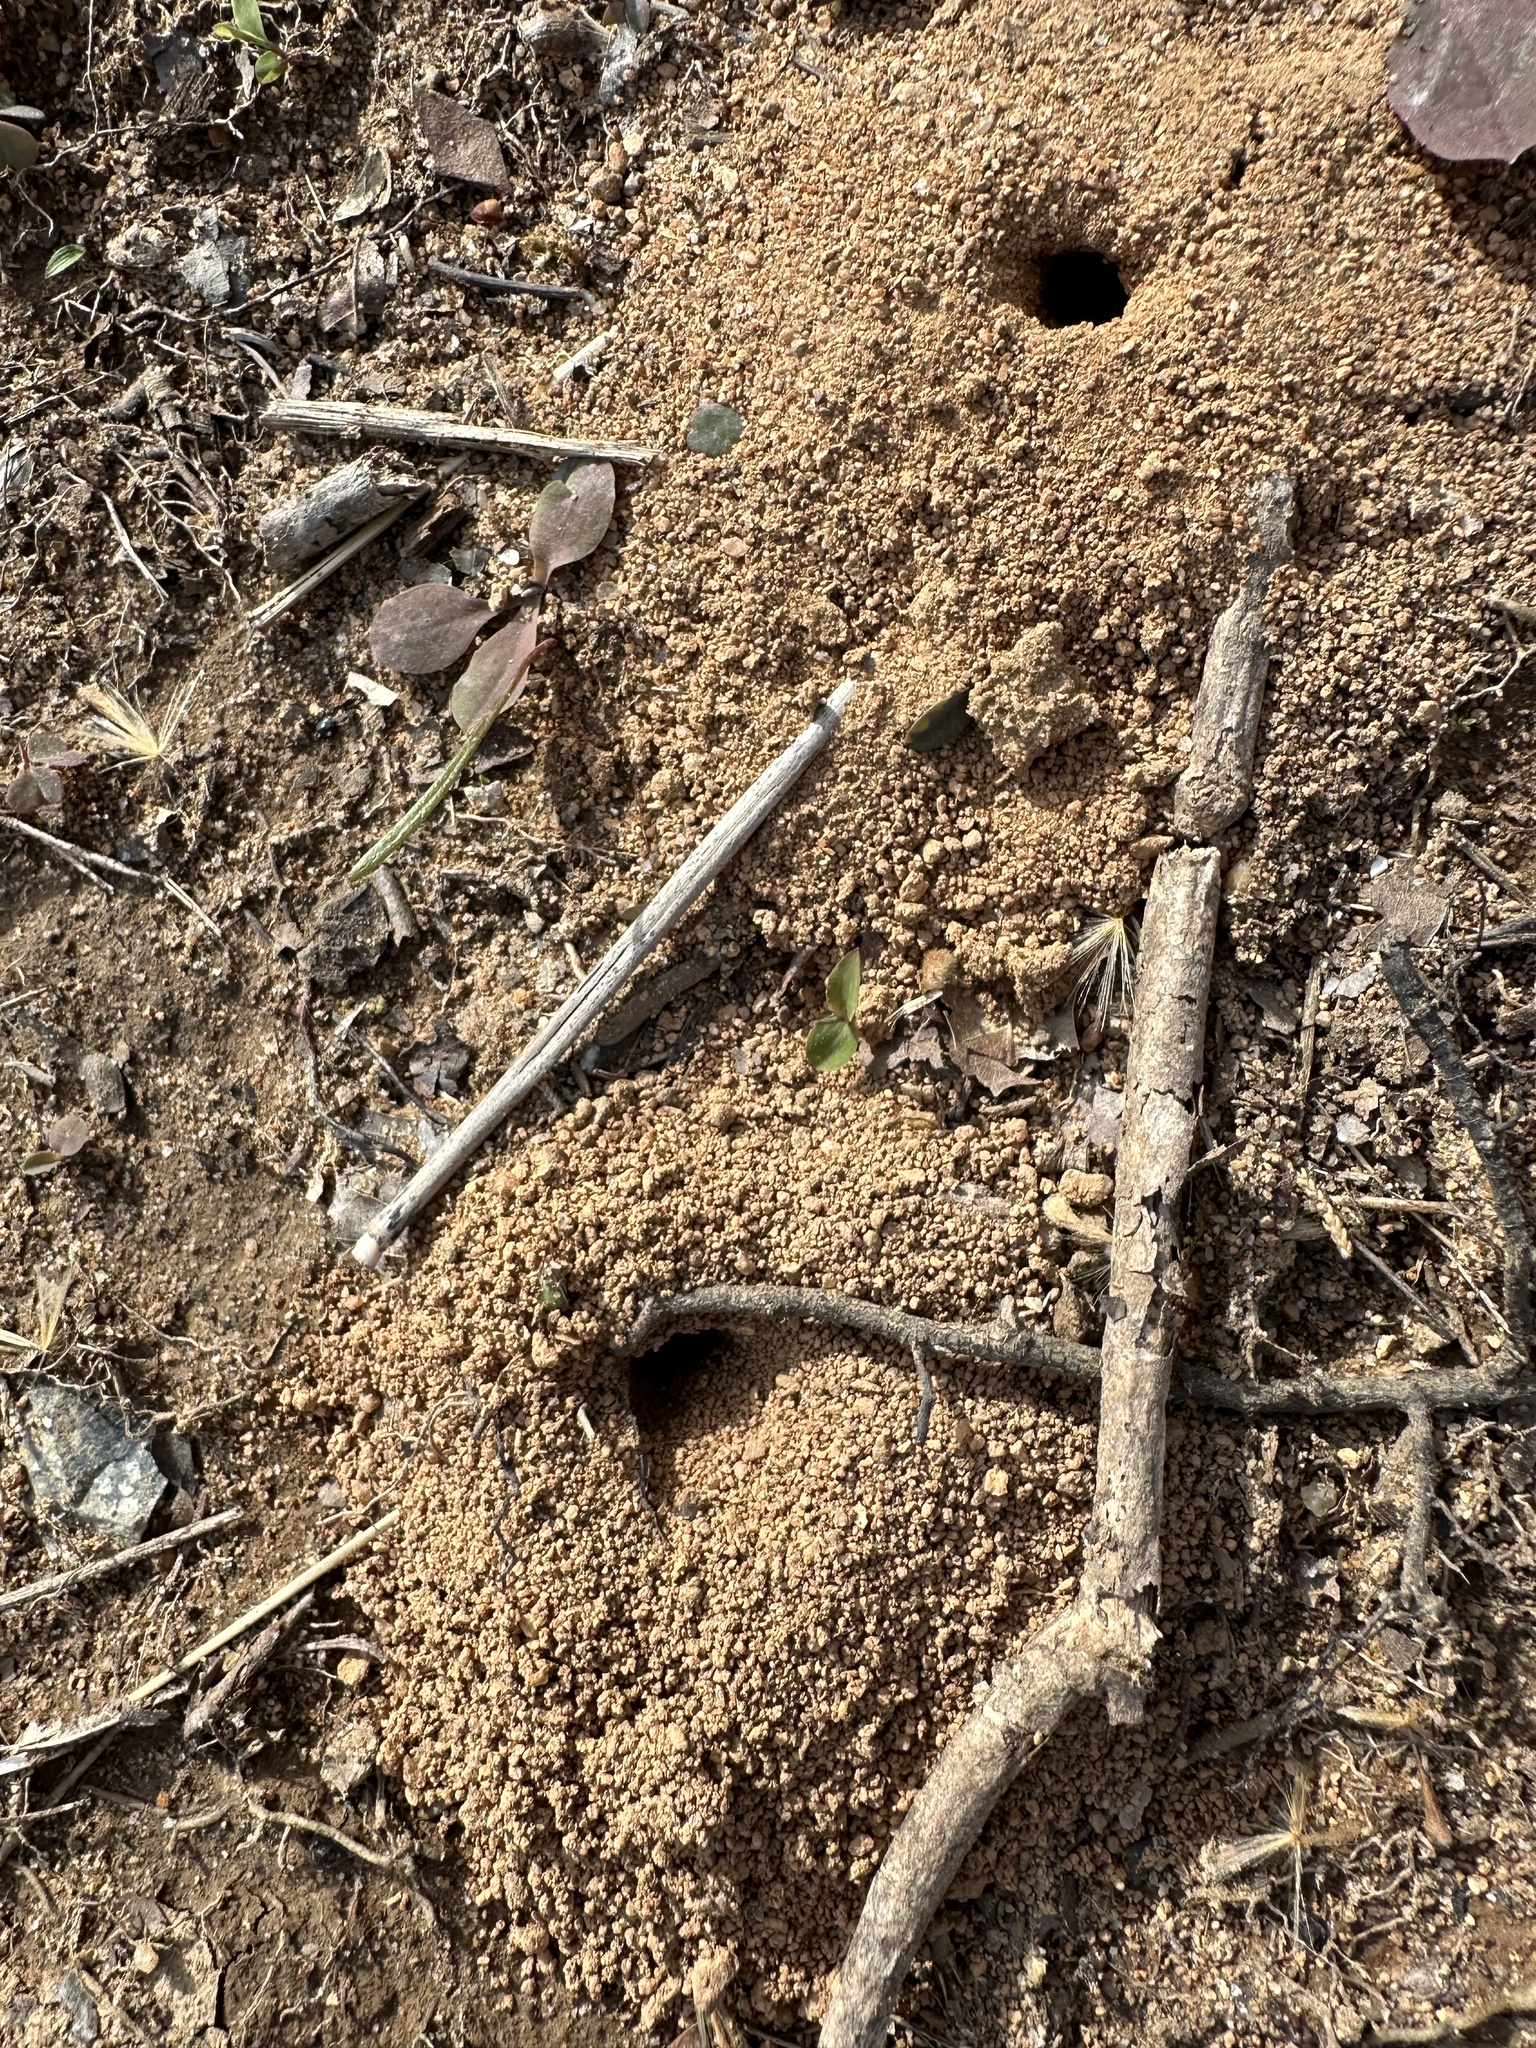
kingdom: Animalia
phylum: Arthropoda
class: Insecta
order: Hymenoptera
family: Colletidae
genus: Colletes
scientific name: Colletes inaequalis
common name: Unequal cellophane bee
